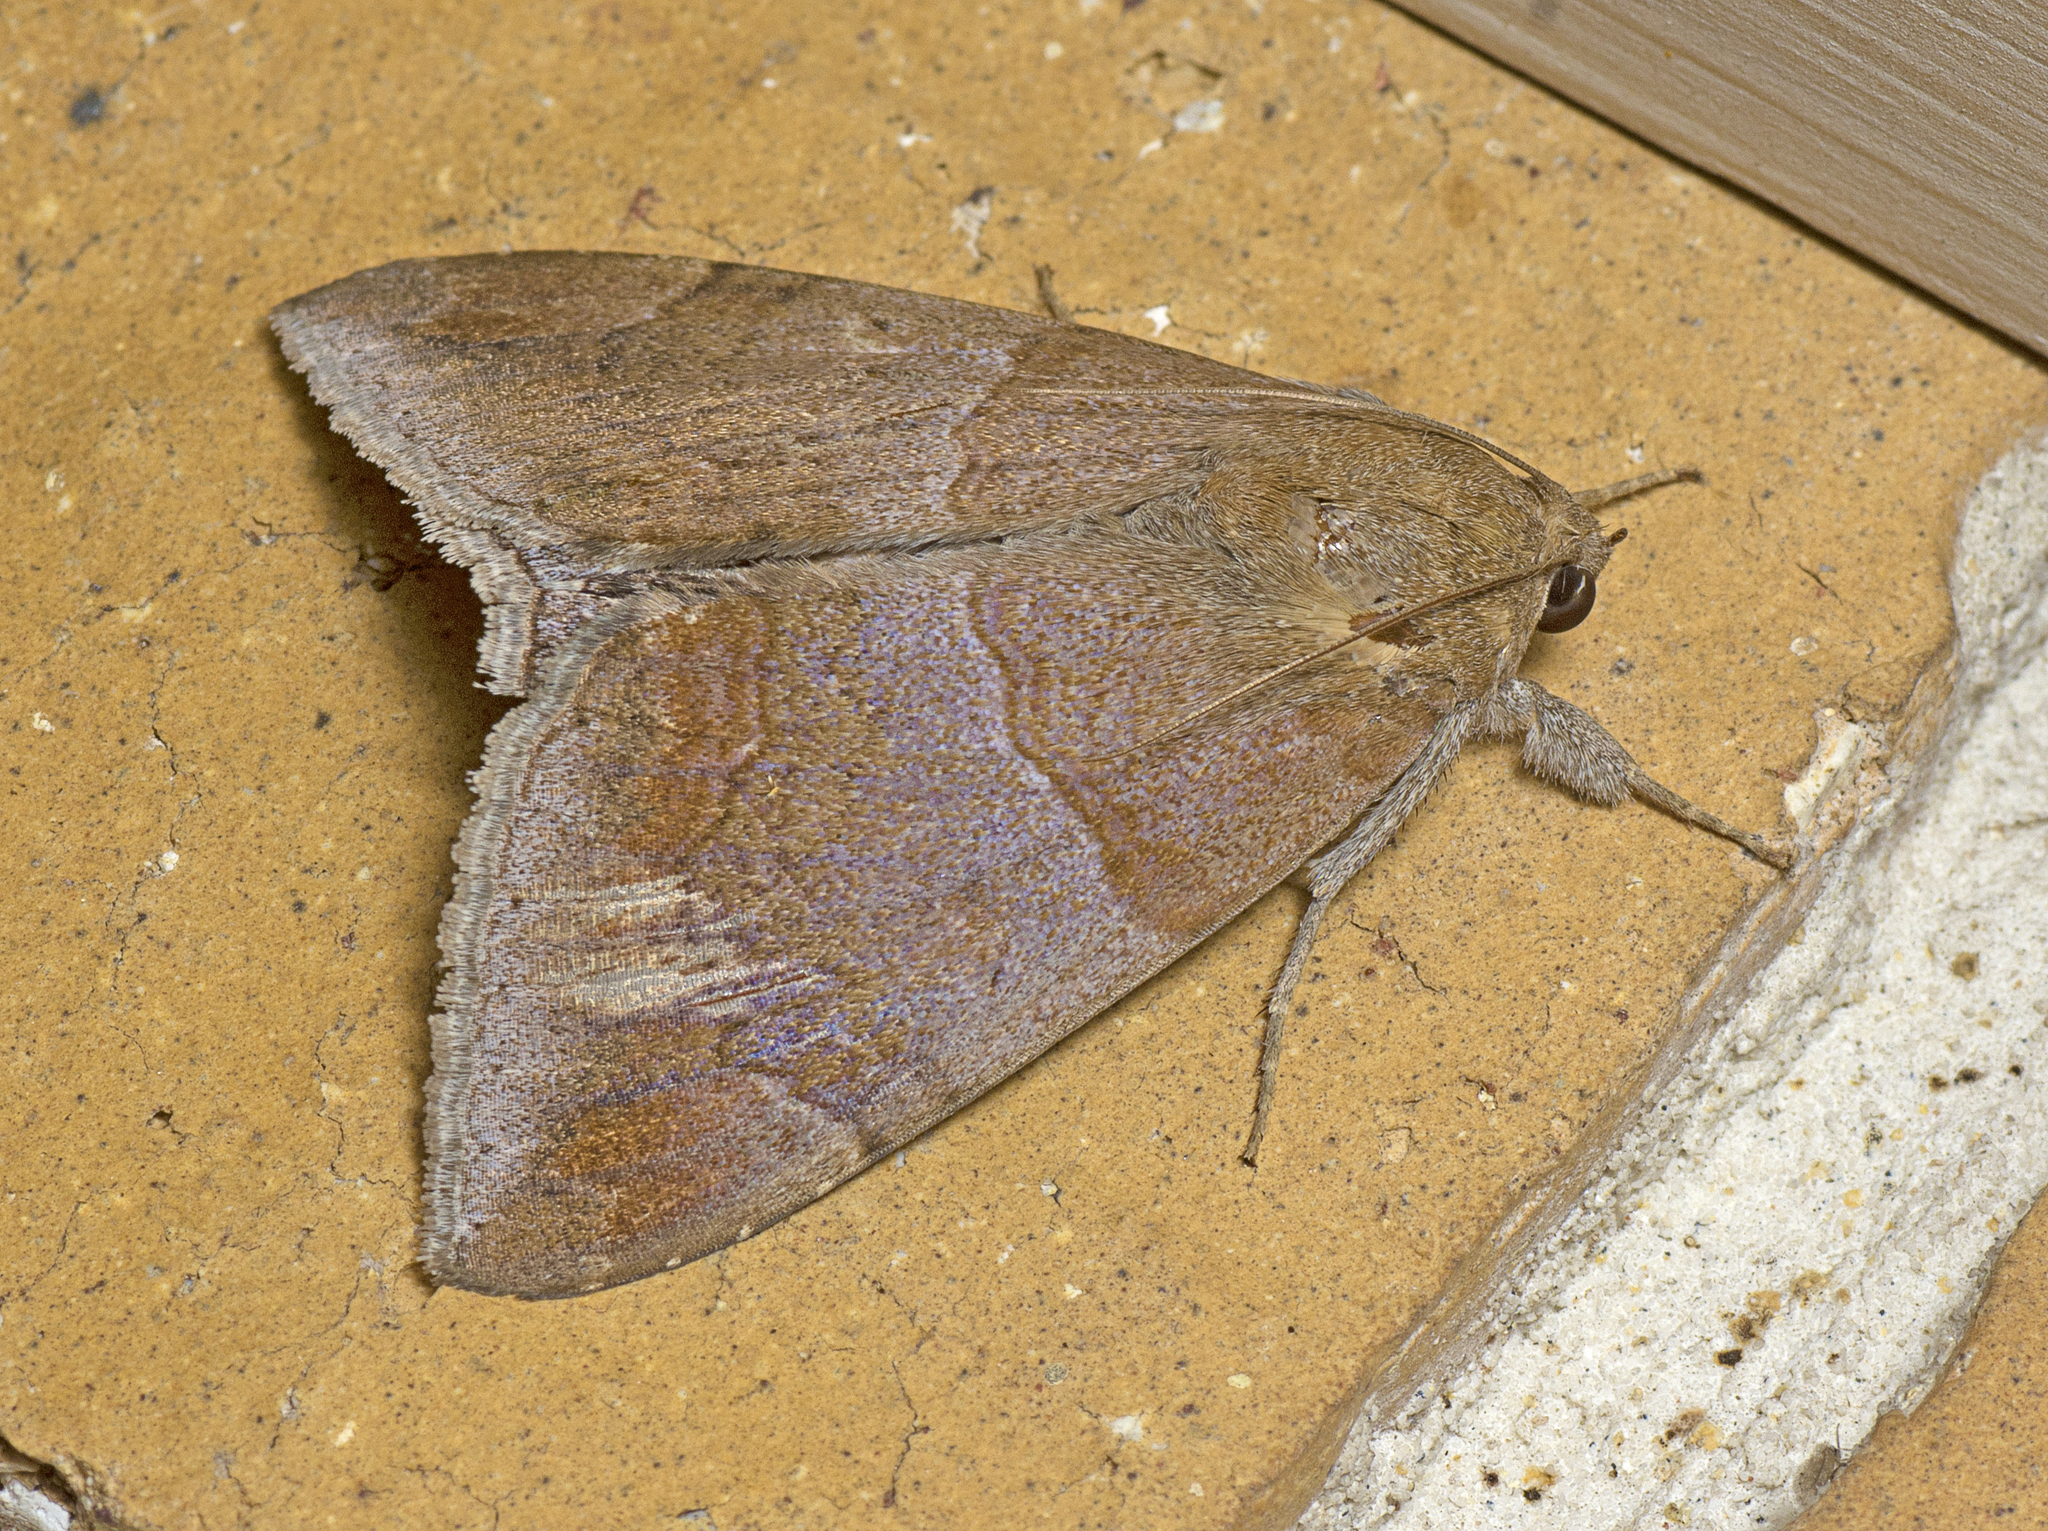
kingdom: Animalia
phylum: Arthropoda
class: Insecta
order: Lepidoptera
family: Erebidae
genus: Achaea
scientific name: Achaea janata
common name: Croton caterpillar
